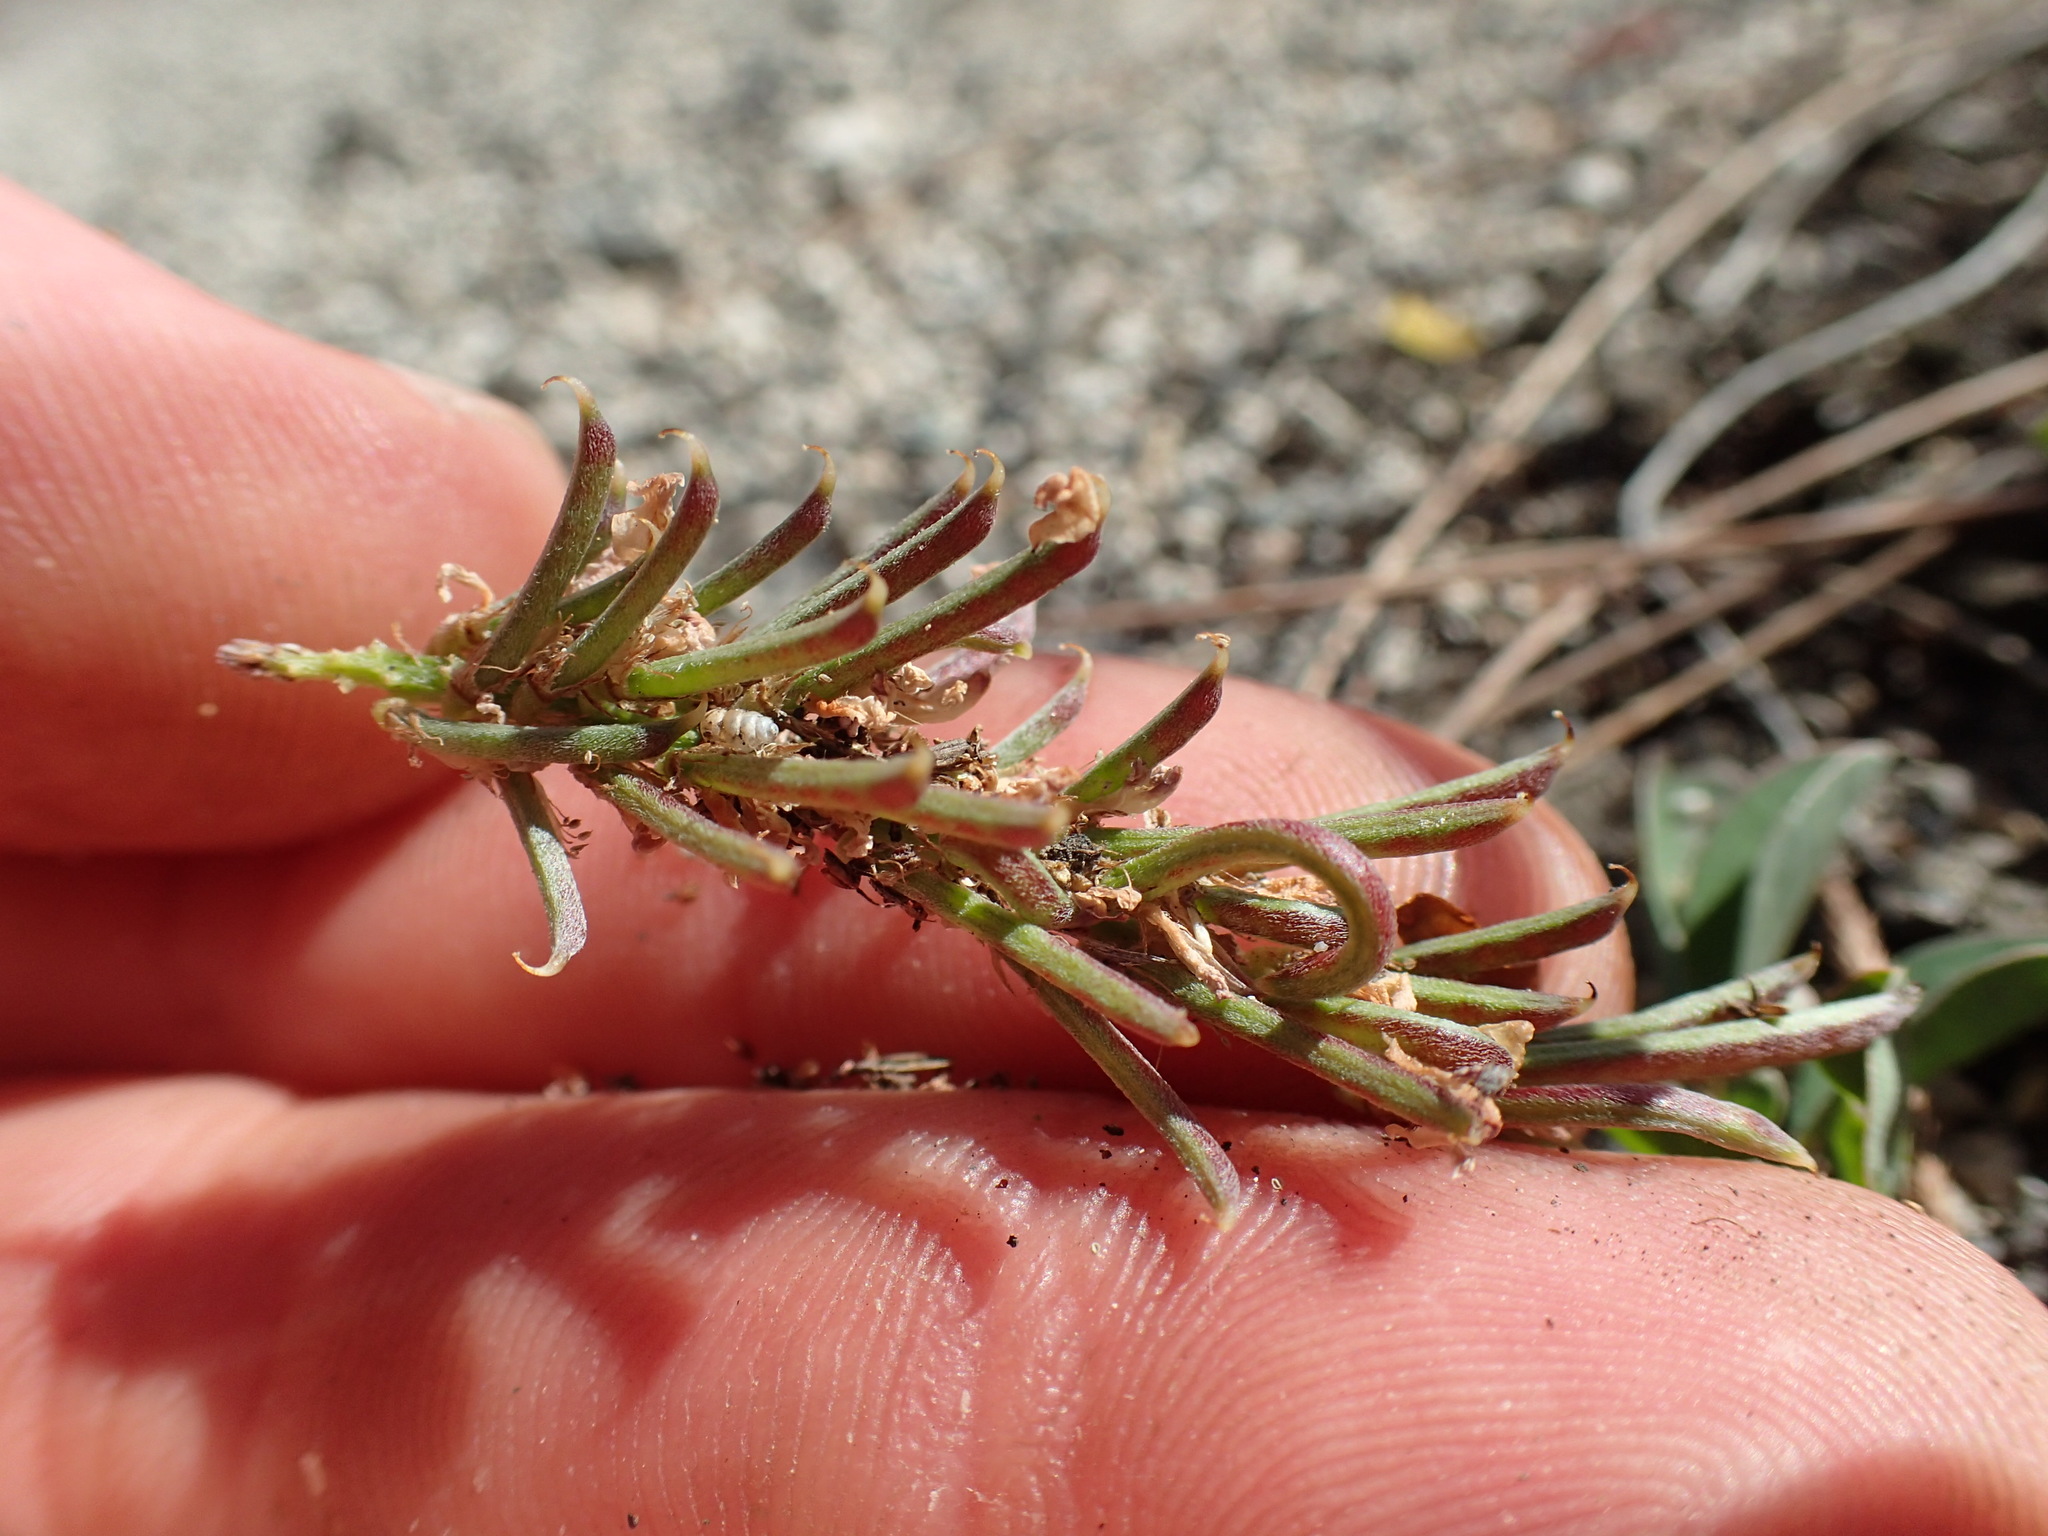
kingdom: Plantae
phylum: Tracheophyta
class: Magnoliopsida
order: Fabales
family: Fabaceae
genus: Indigofera
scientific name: Indigofera spicata
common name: Creeping indigo
